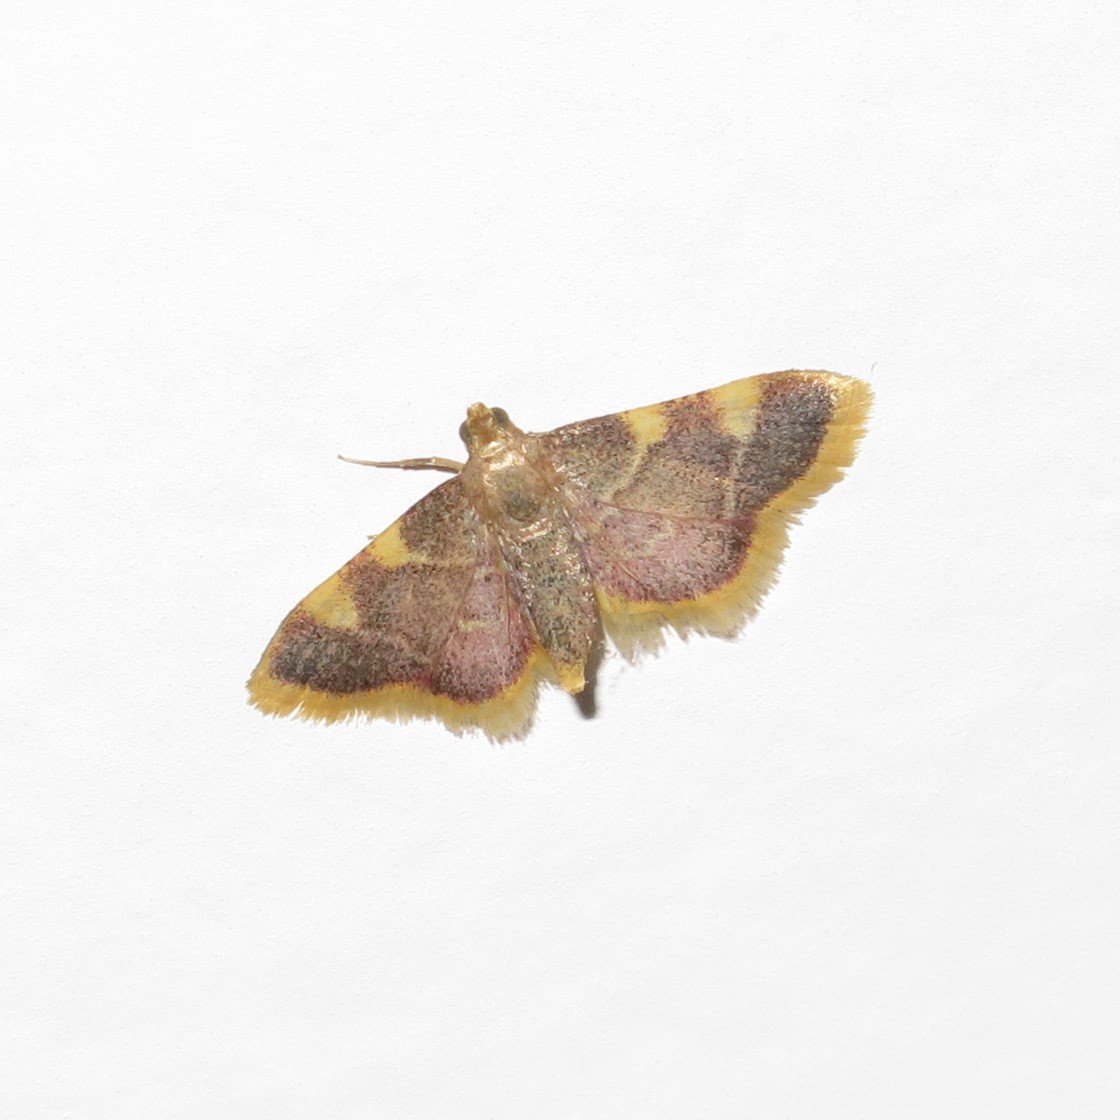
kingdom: Animalia
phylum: Arthropoda
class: Insecta
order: Lepidoptera
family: Pyralidae
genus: Hypsopygia
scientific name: Hypsopygia costalis
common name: Gold triangle
